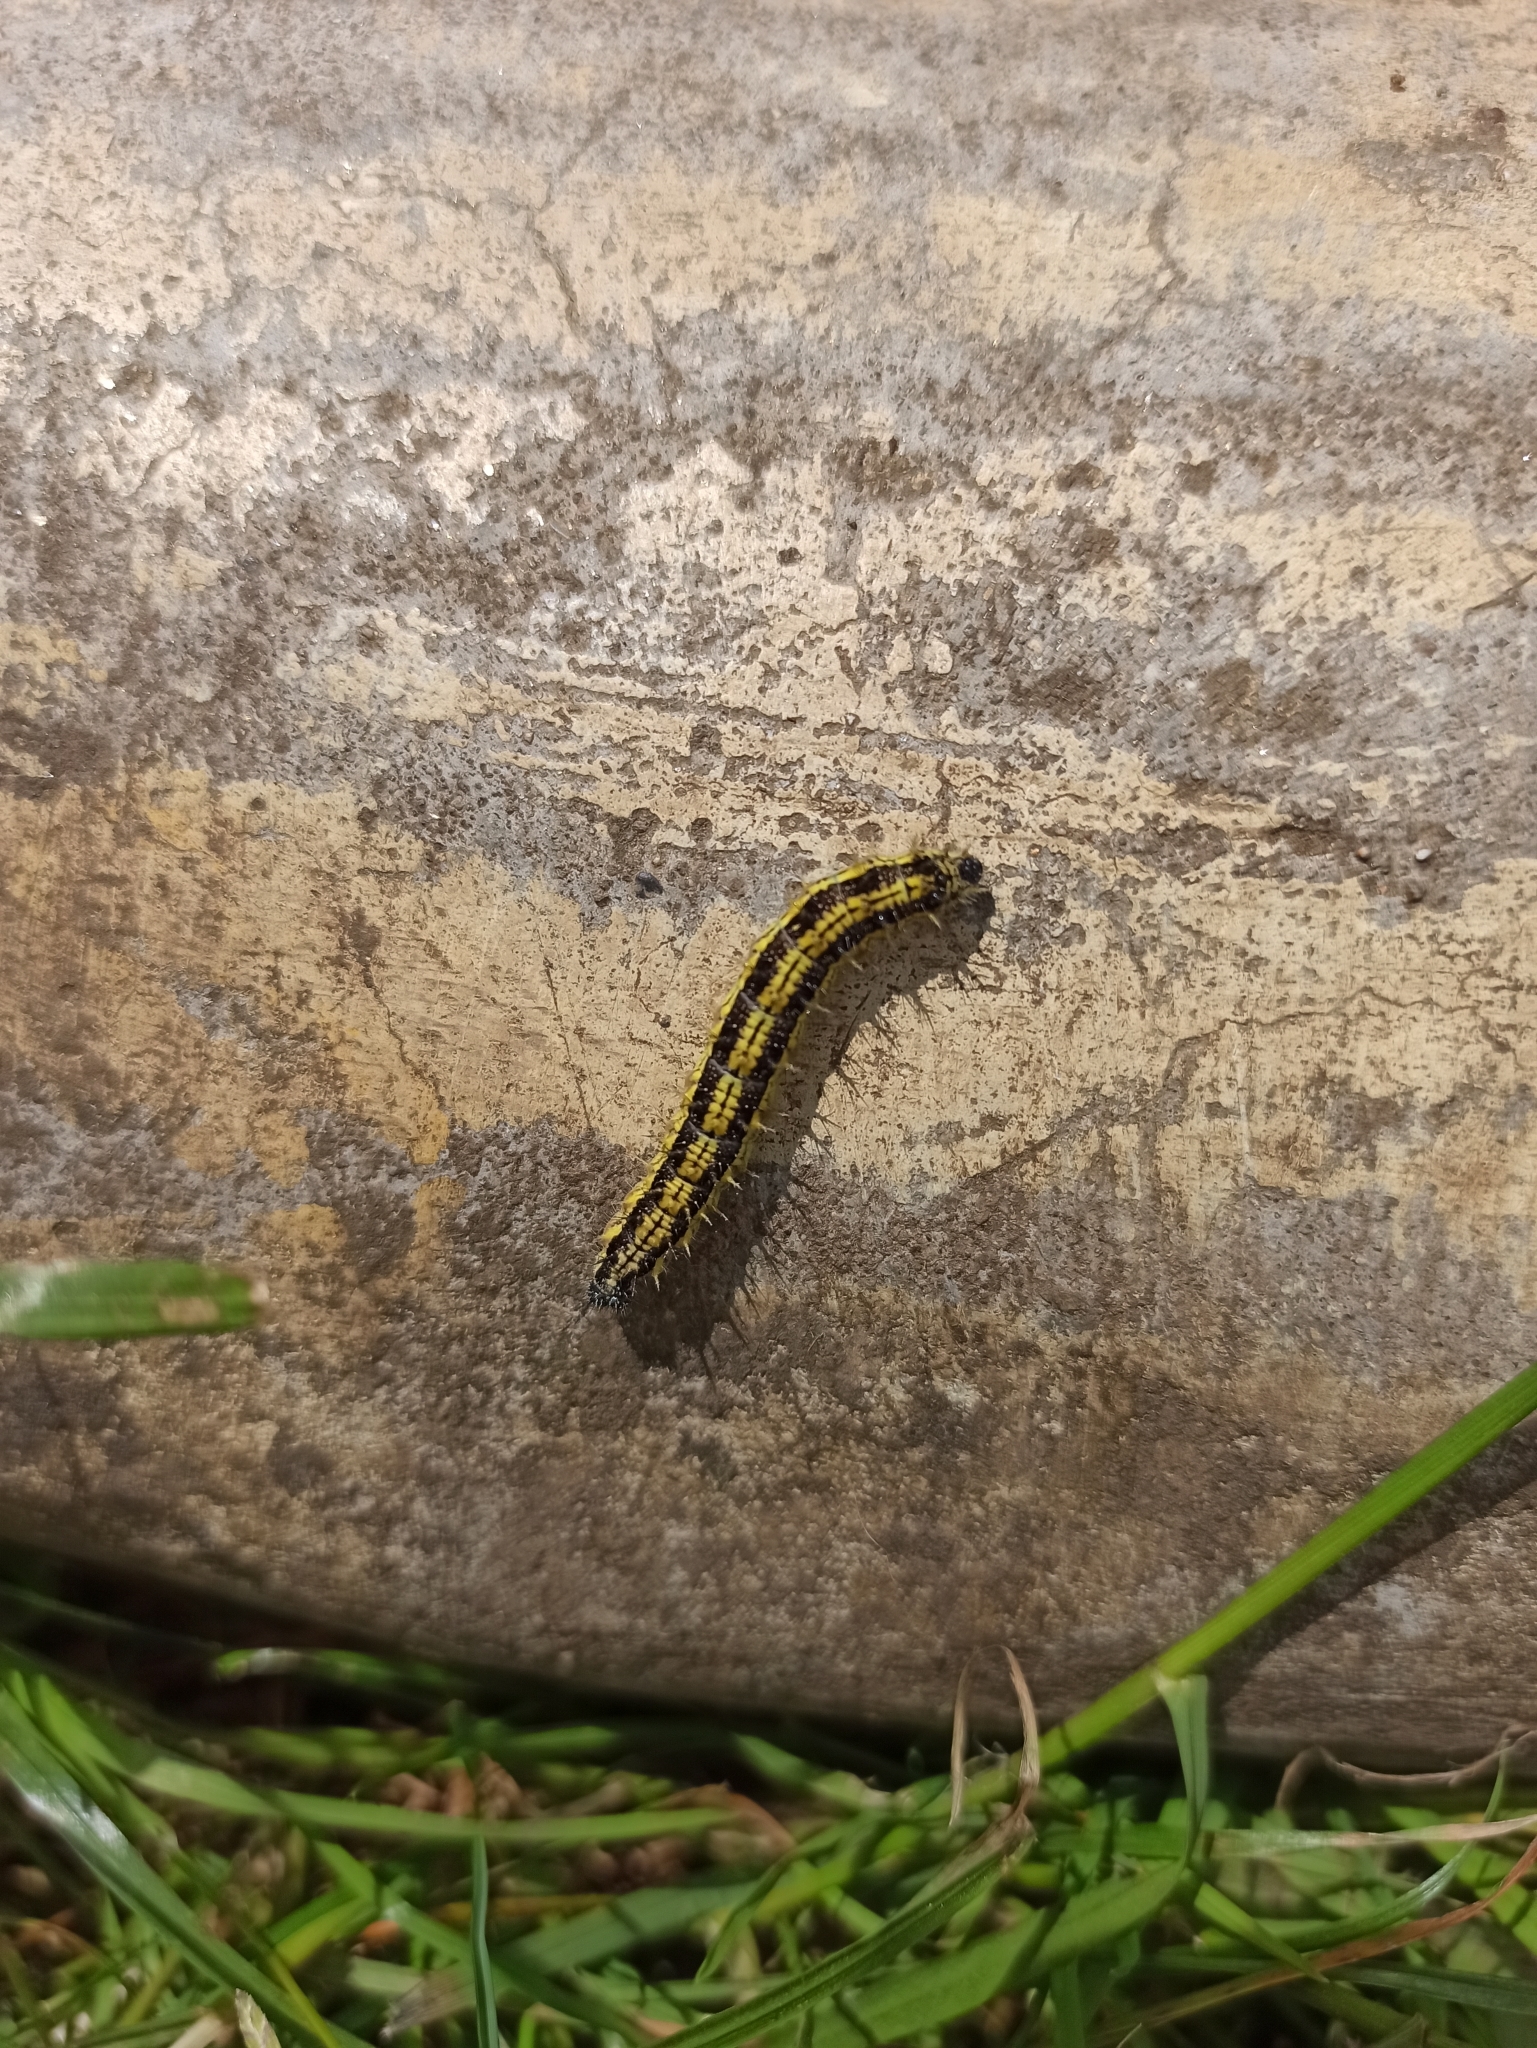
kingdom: Animalia
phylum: Arthropoda
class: Insecta
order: Lepidoptera
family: Nymphalidae
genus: Aglais
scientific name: Aglais urticae
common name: Small tortoiseshell
